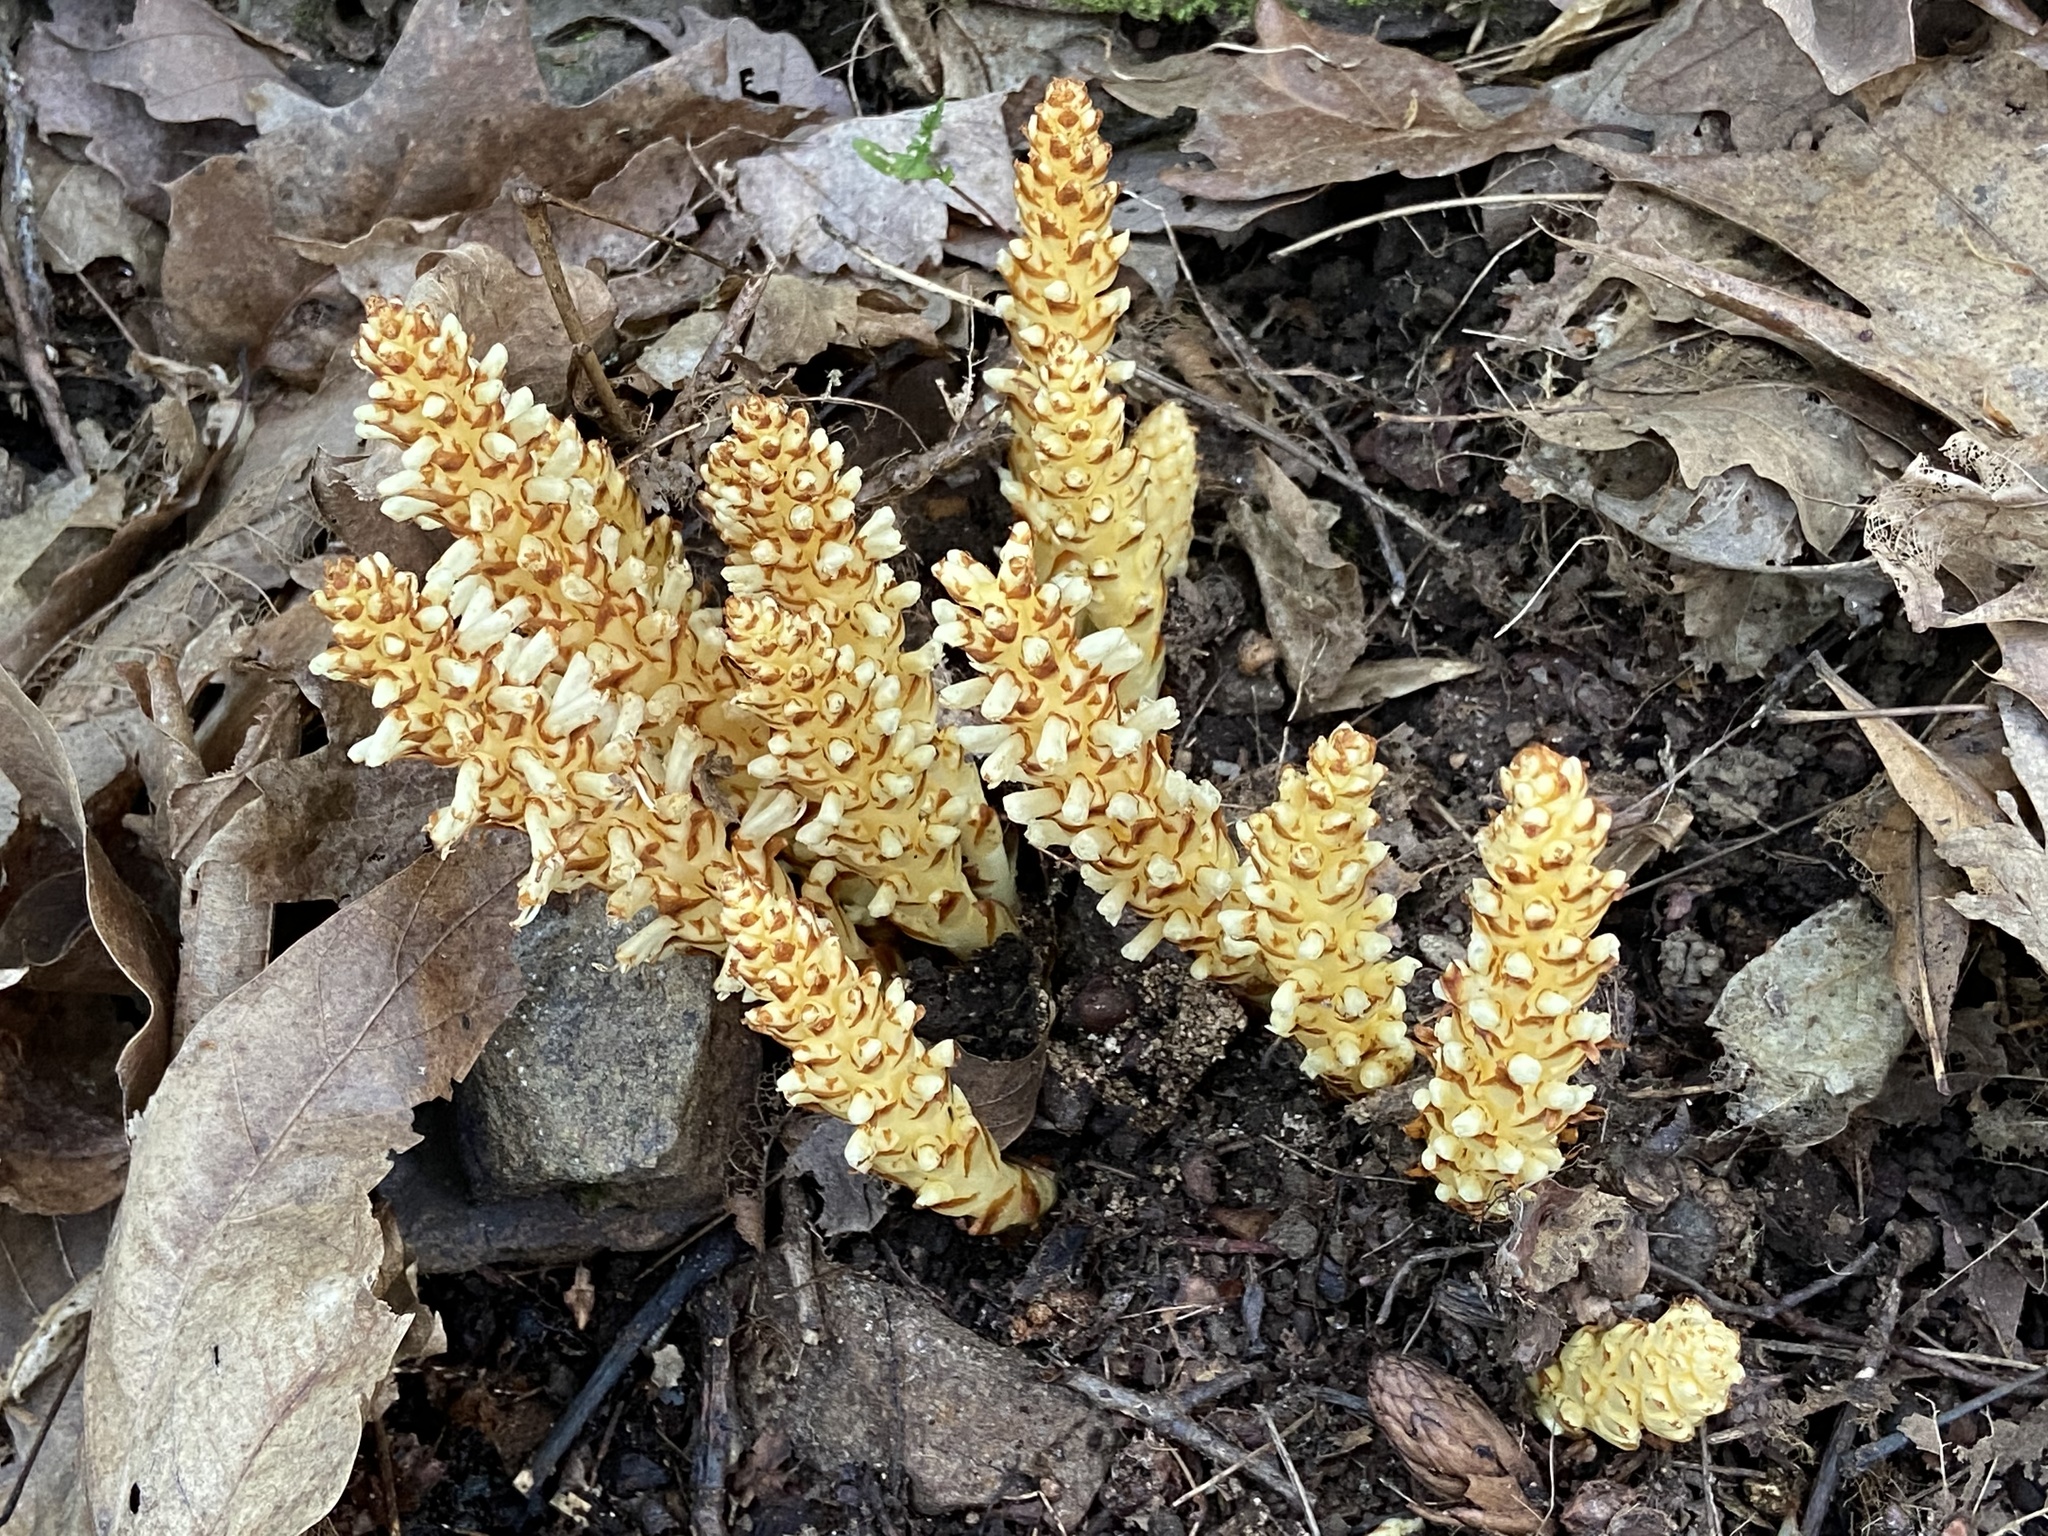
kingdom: Plantae
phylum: Tracheophyta
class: Magnoliopsida
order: Lamiales
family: Orobanchaceae
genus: Conopholis
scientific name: Conopholis americana
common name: American cancer-root
